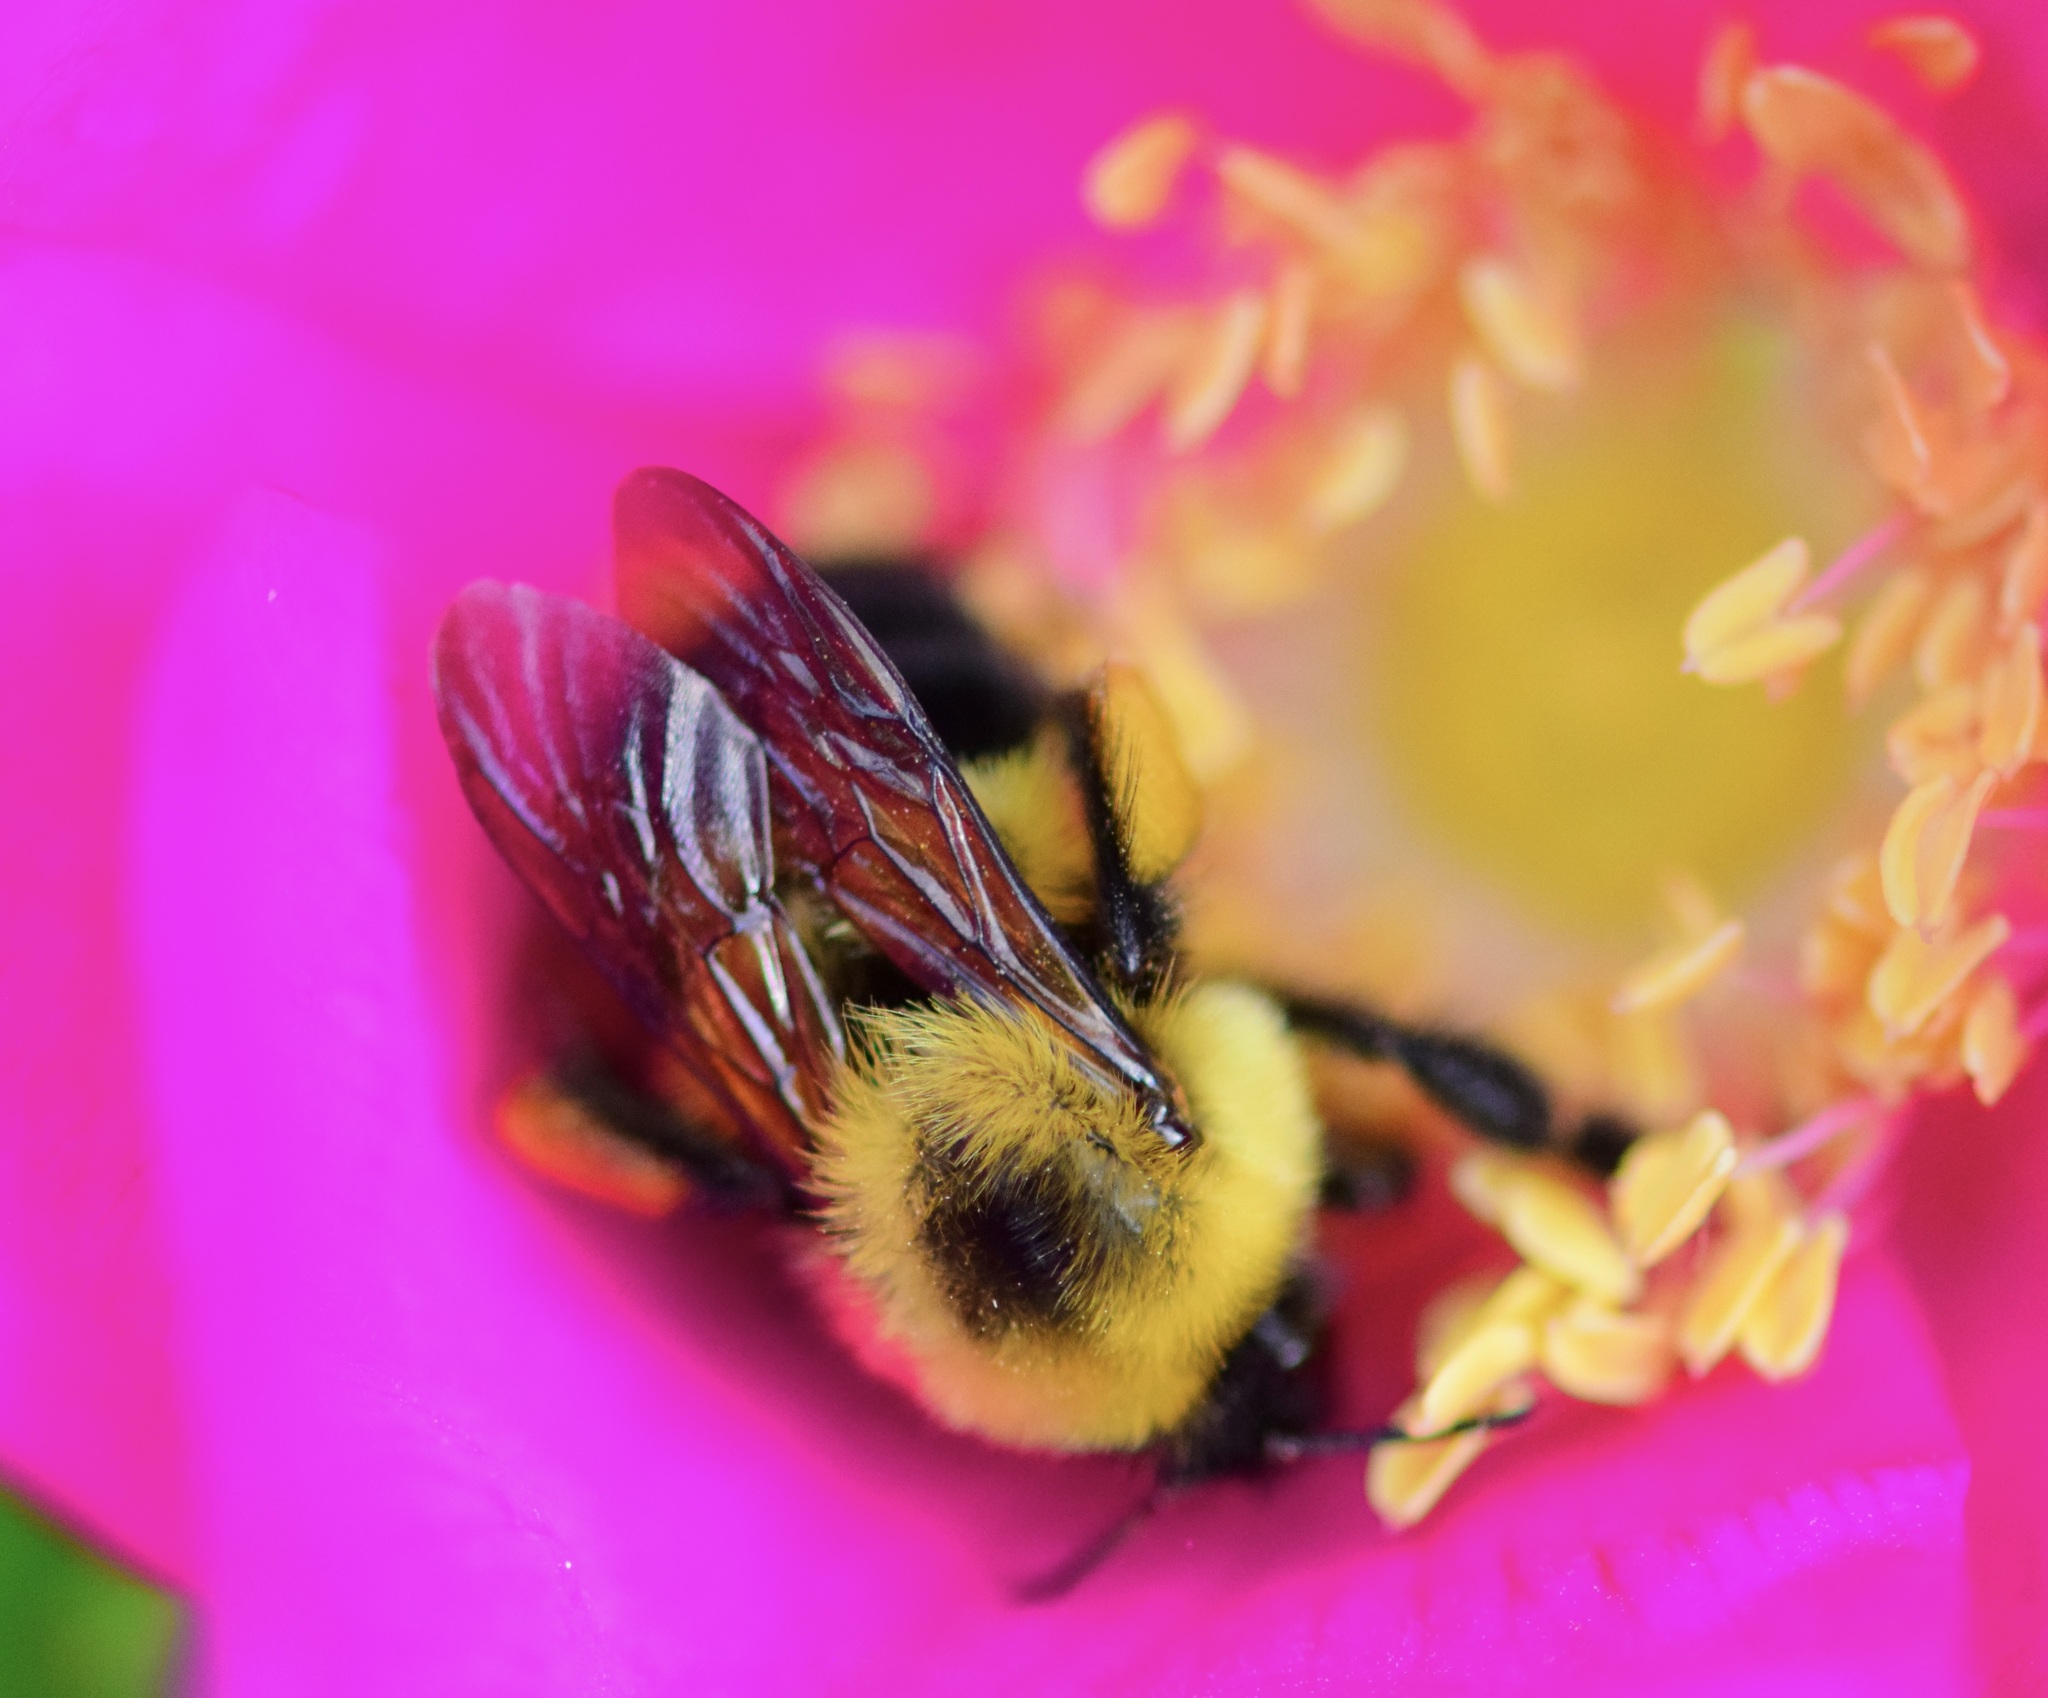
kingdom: Animalia
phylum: Arthropoda
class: Insecta
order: Hymenoptera
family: Apidae
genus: Bombus
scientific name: Bombus bimaculatus
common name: Two-spotted bumble bee
